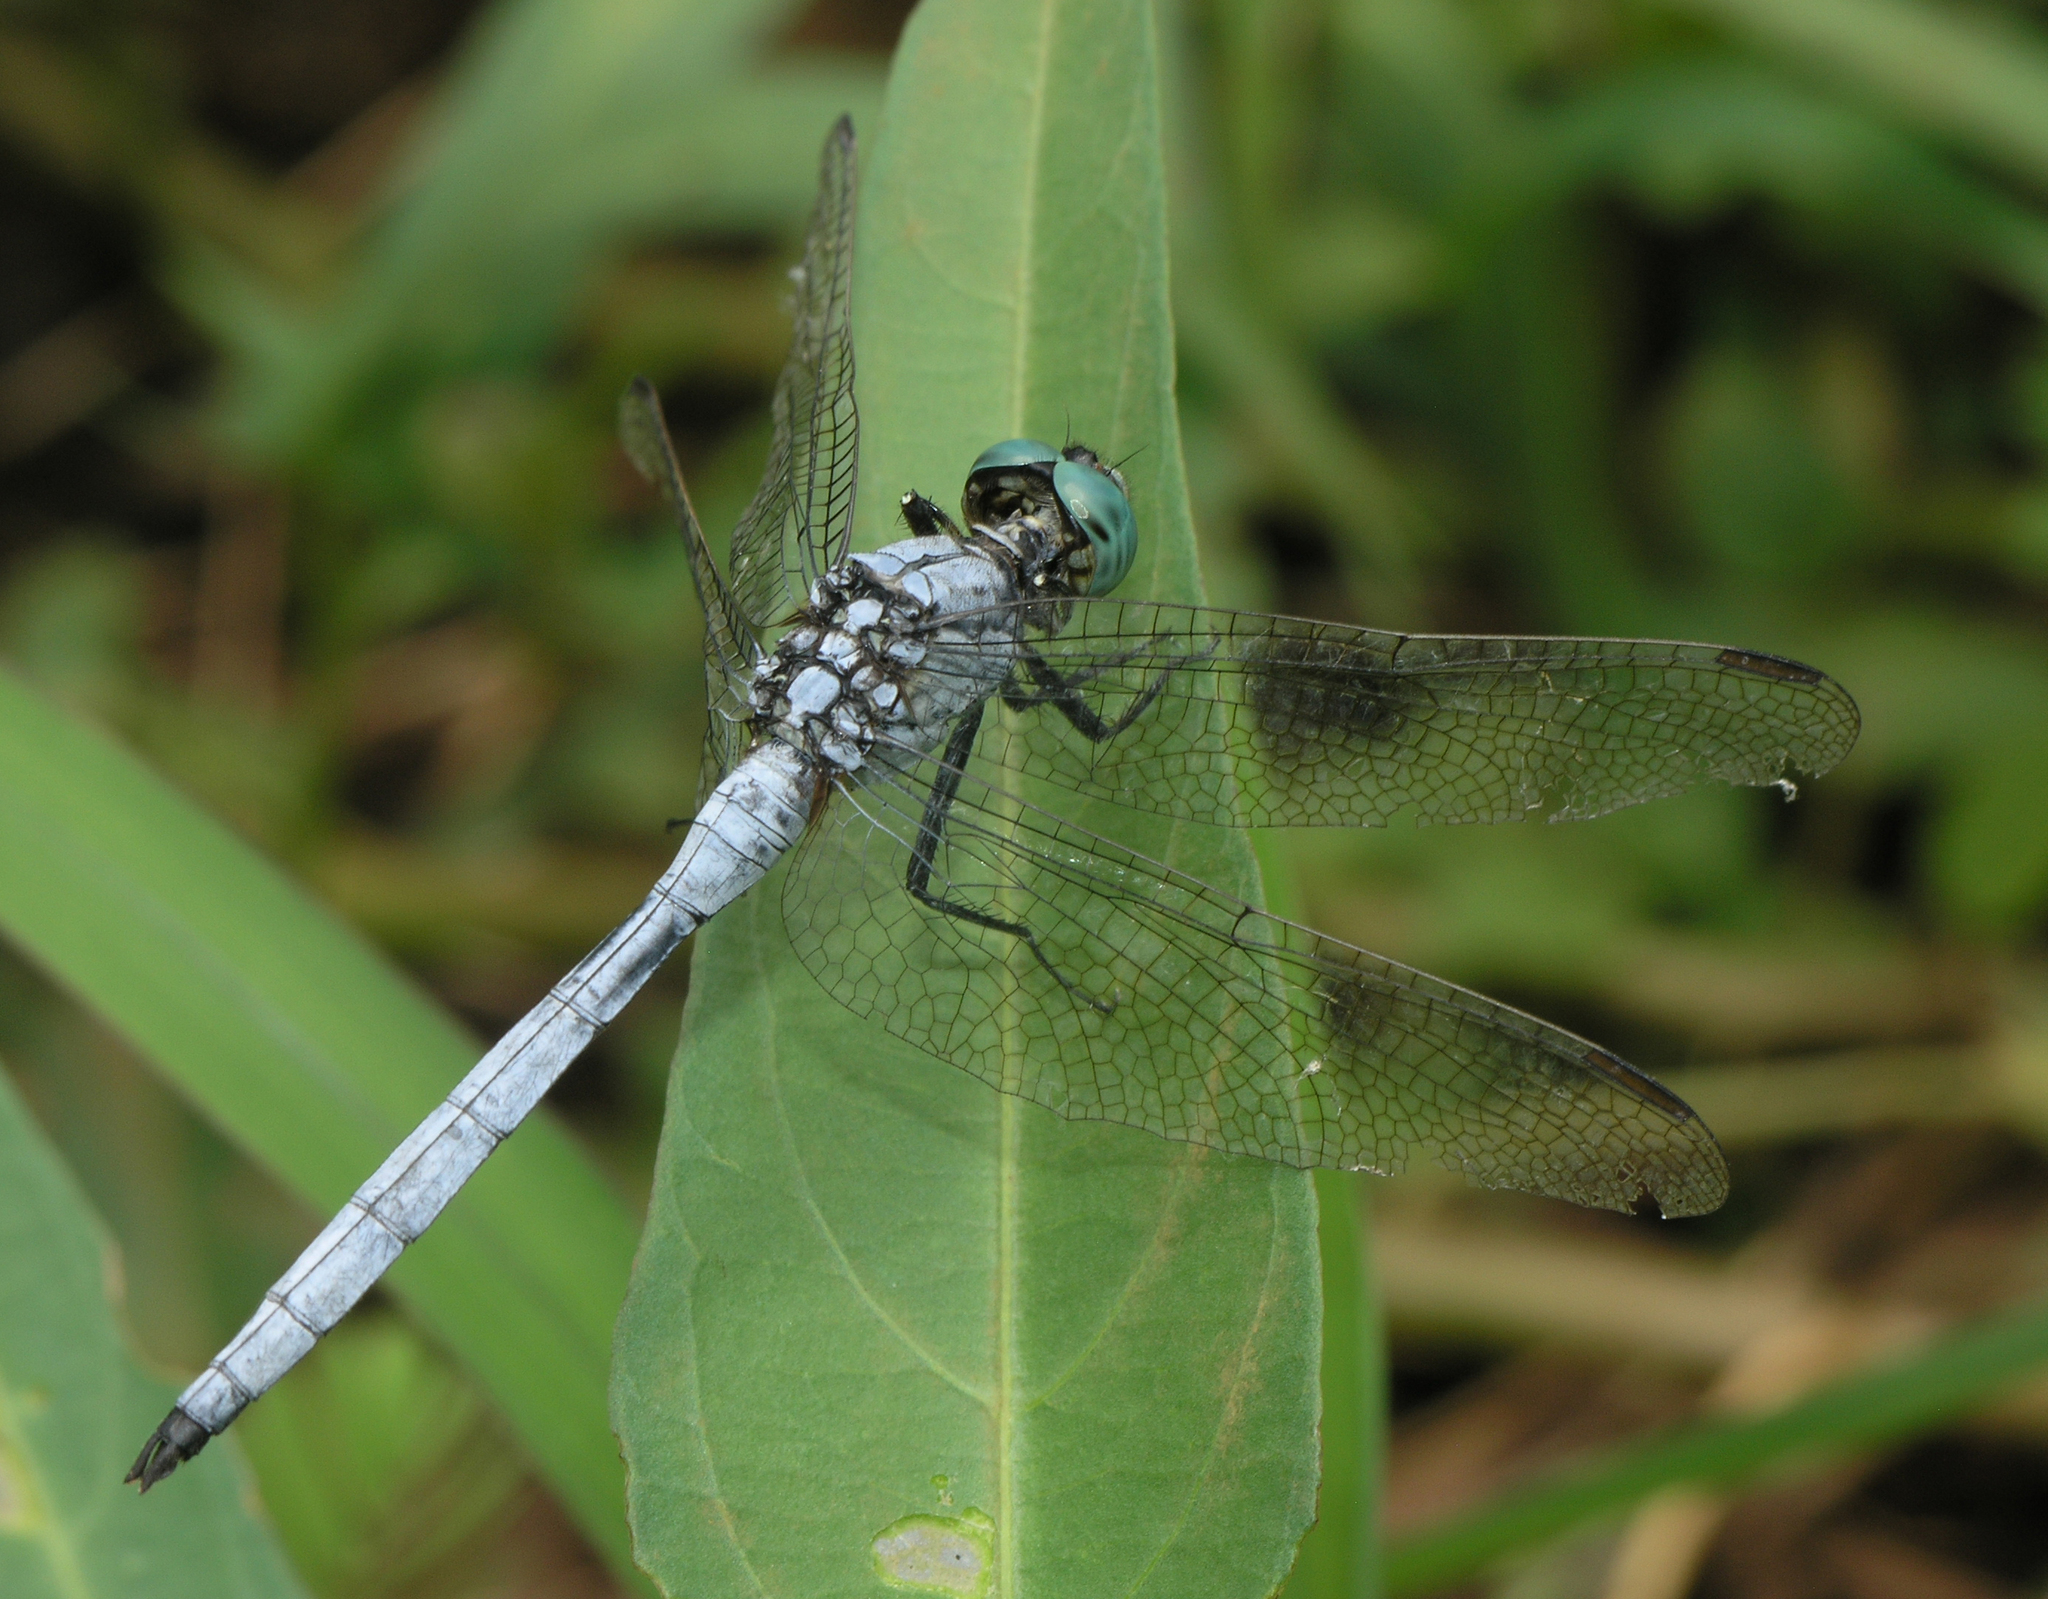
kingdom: Animalia
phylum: Arthropoda
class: Insecta
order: Odonata
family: Libellulidae
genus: Orthetrum
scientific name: Orthetrum luzonicum
